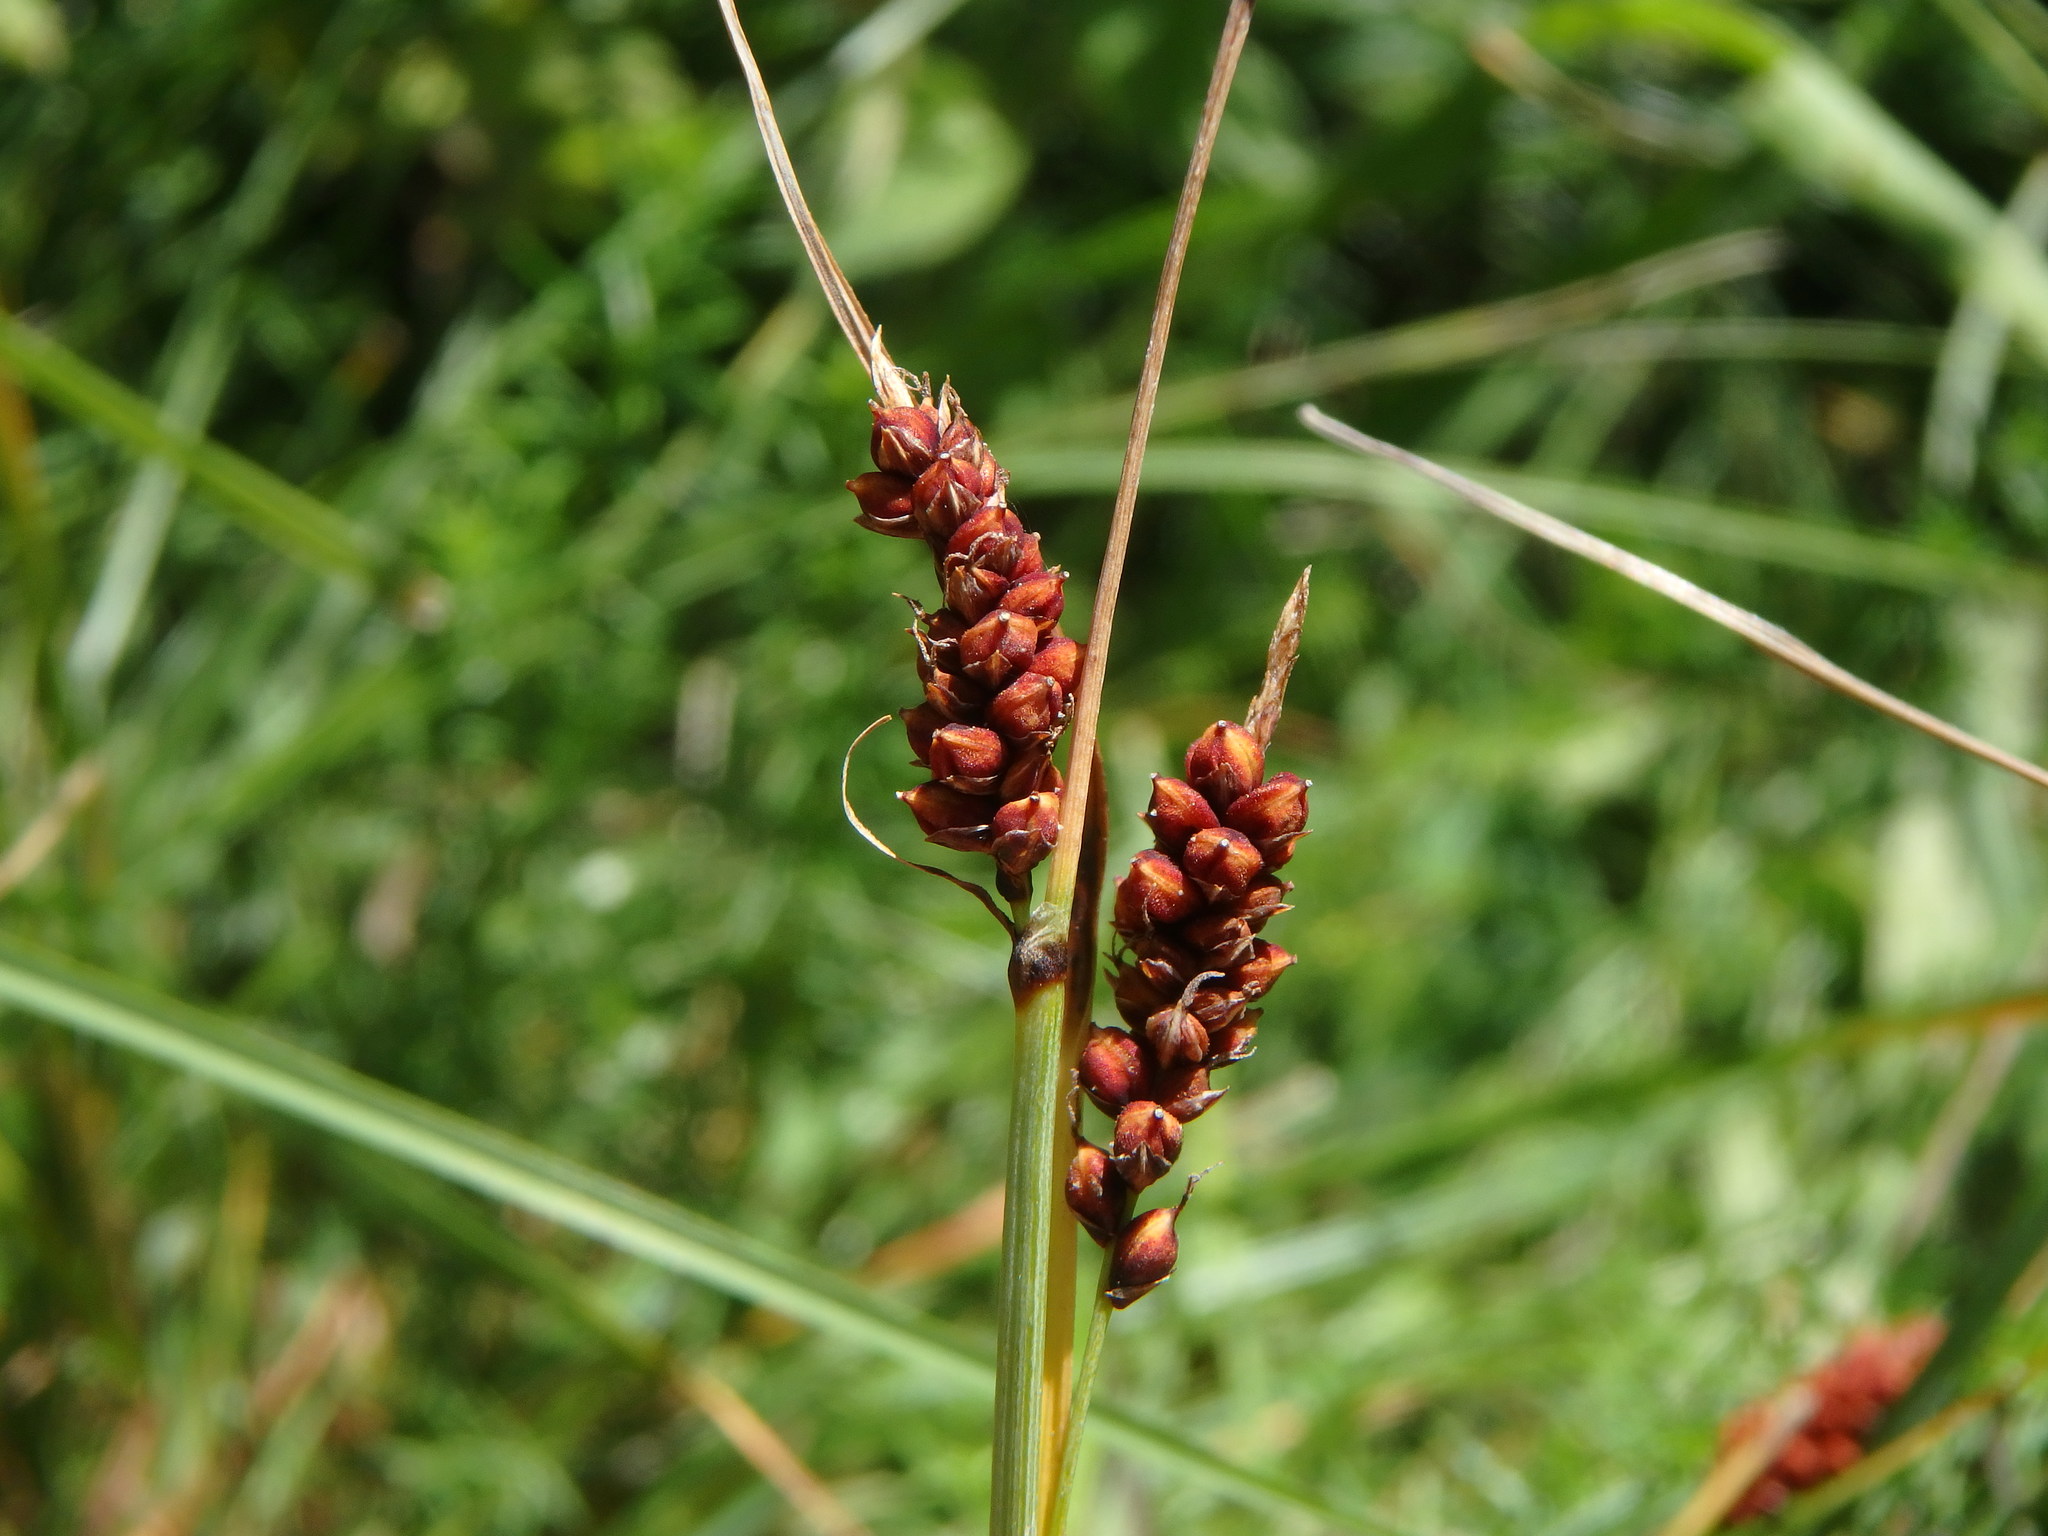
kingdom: Plantae
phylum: Tracheophyta
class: Liliopsida
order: Poales
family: Cyperaceae
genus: Carex
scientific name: Carex flacca
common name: Glaucous sedge
